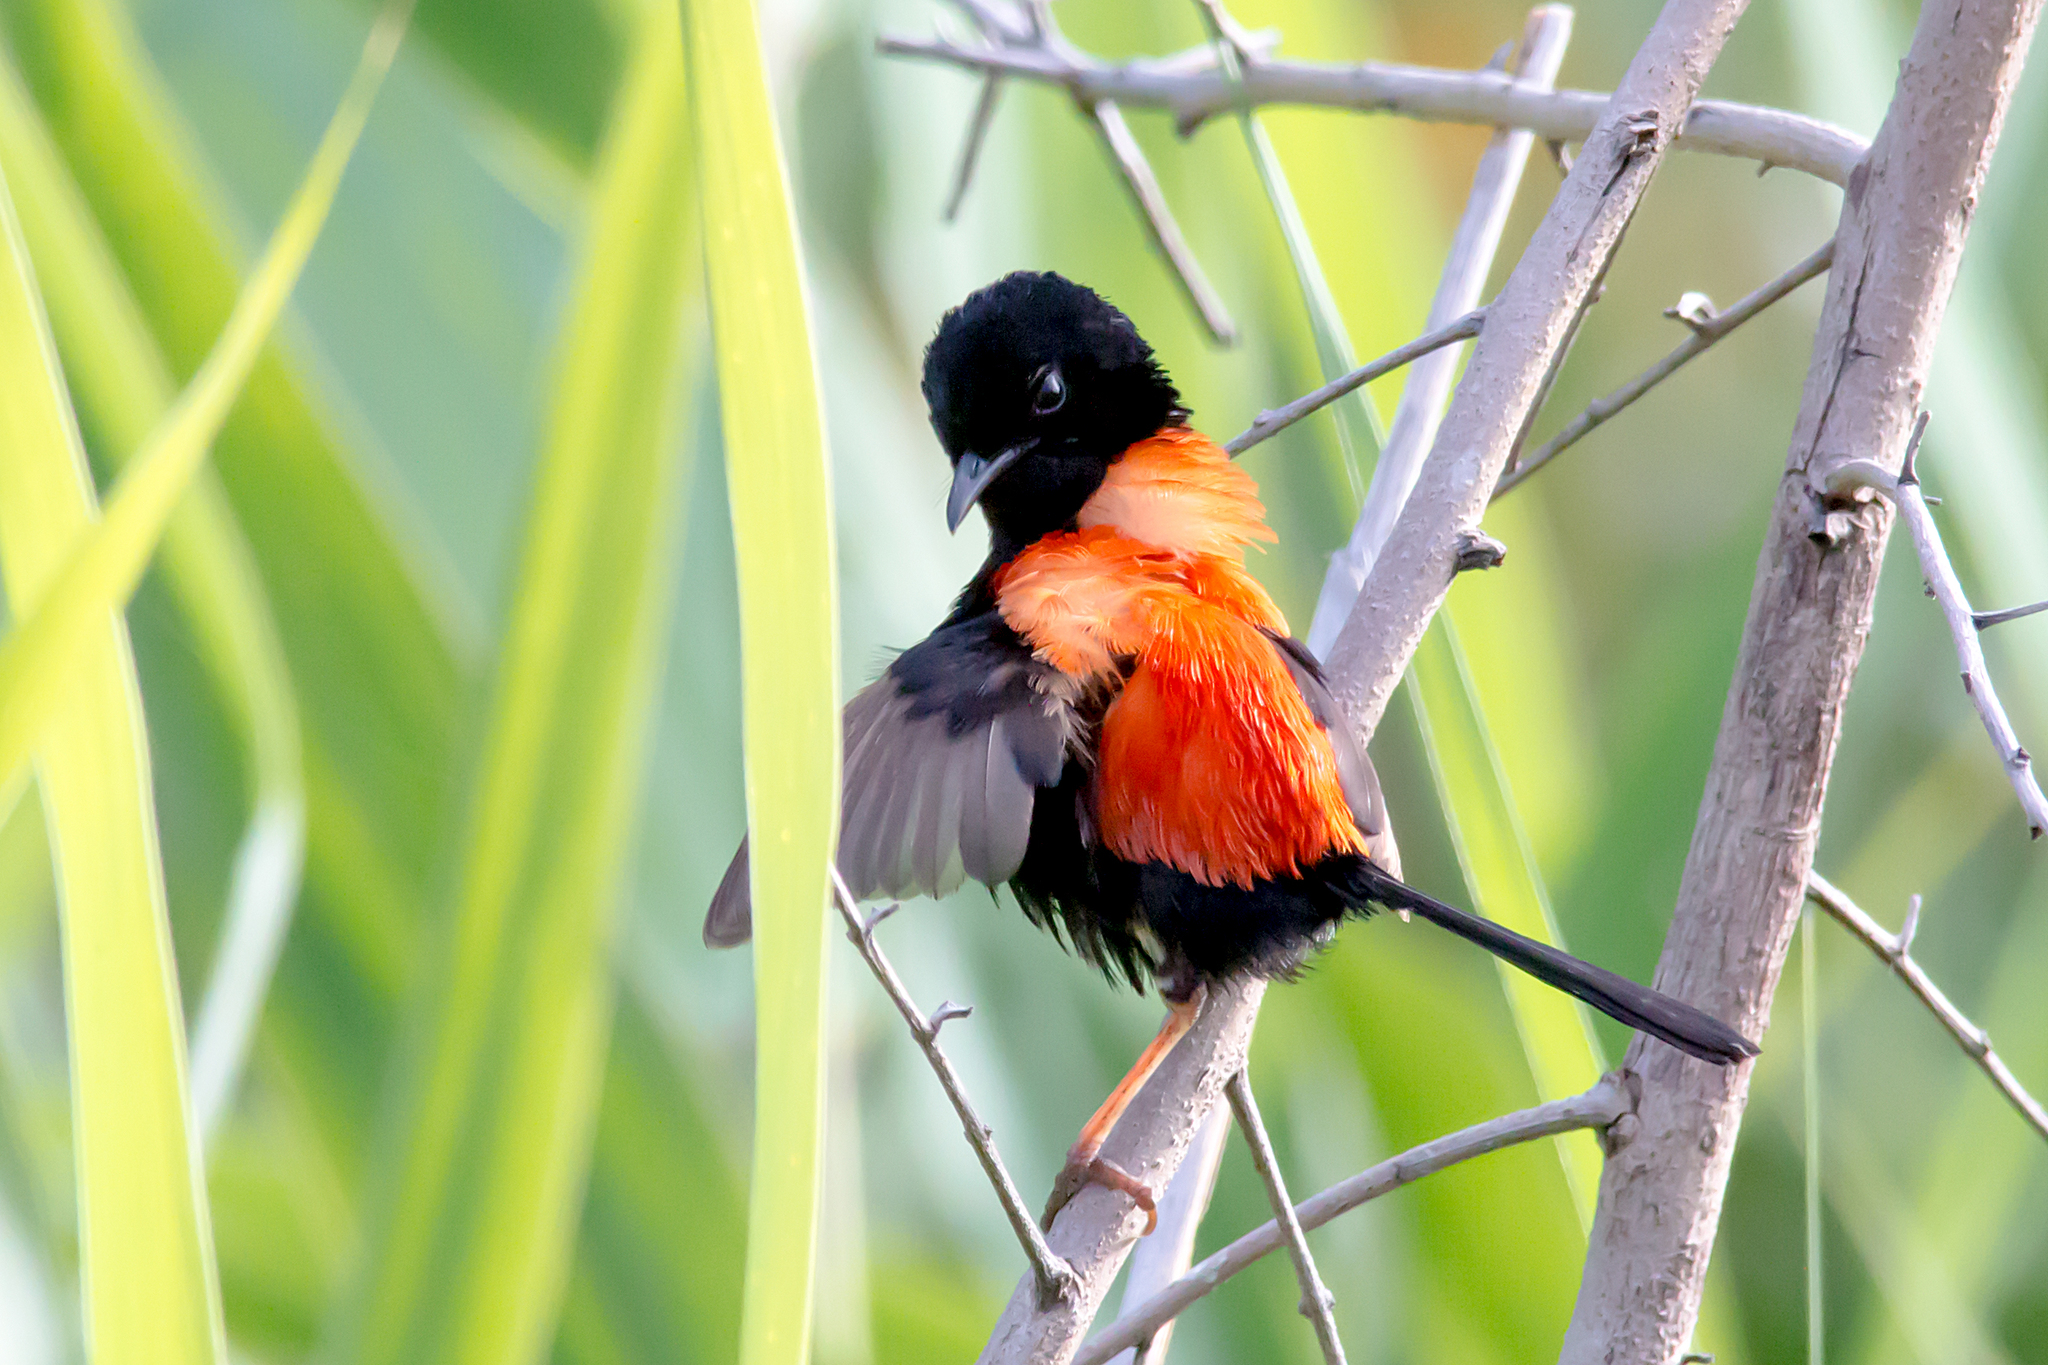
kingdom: Animalia
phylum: Chordata
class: Aves
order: Passeriformes
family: Maluridae
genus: Malurus
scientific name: Malurus melanocephalus
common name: Red-backed fairywren
